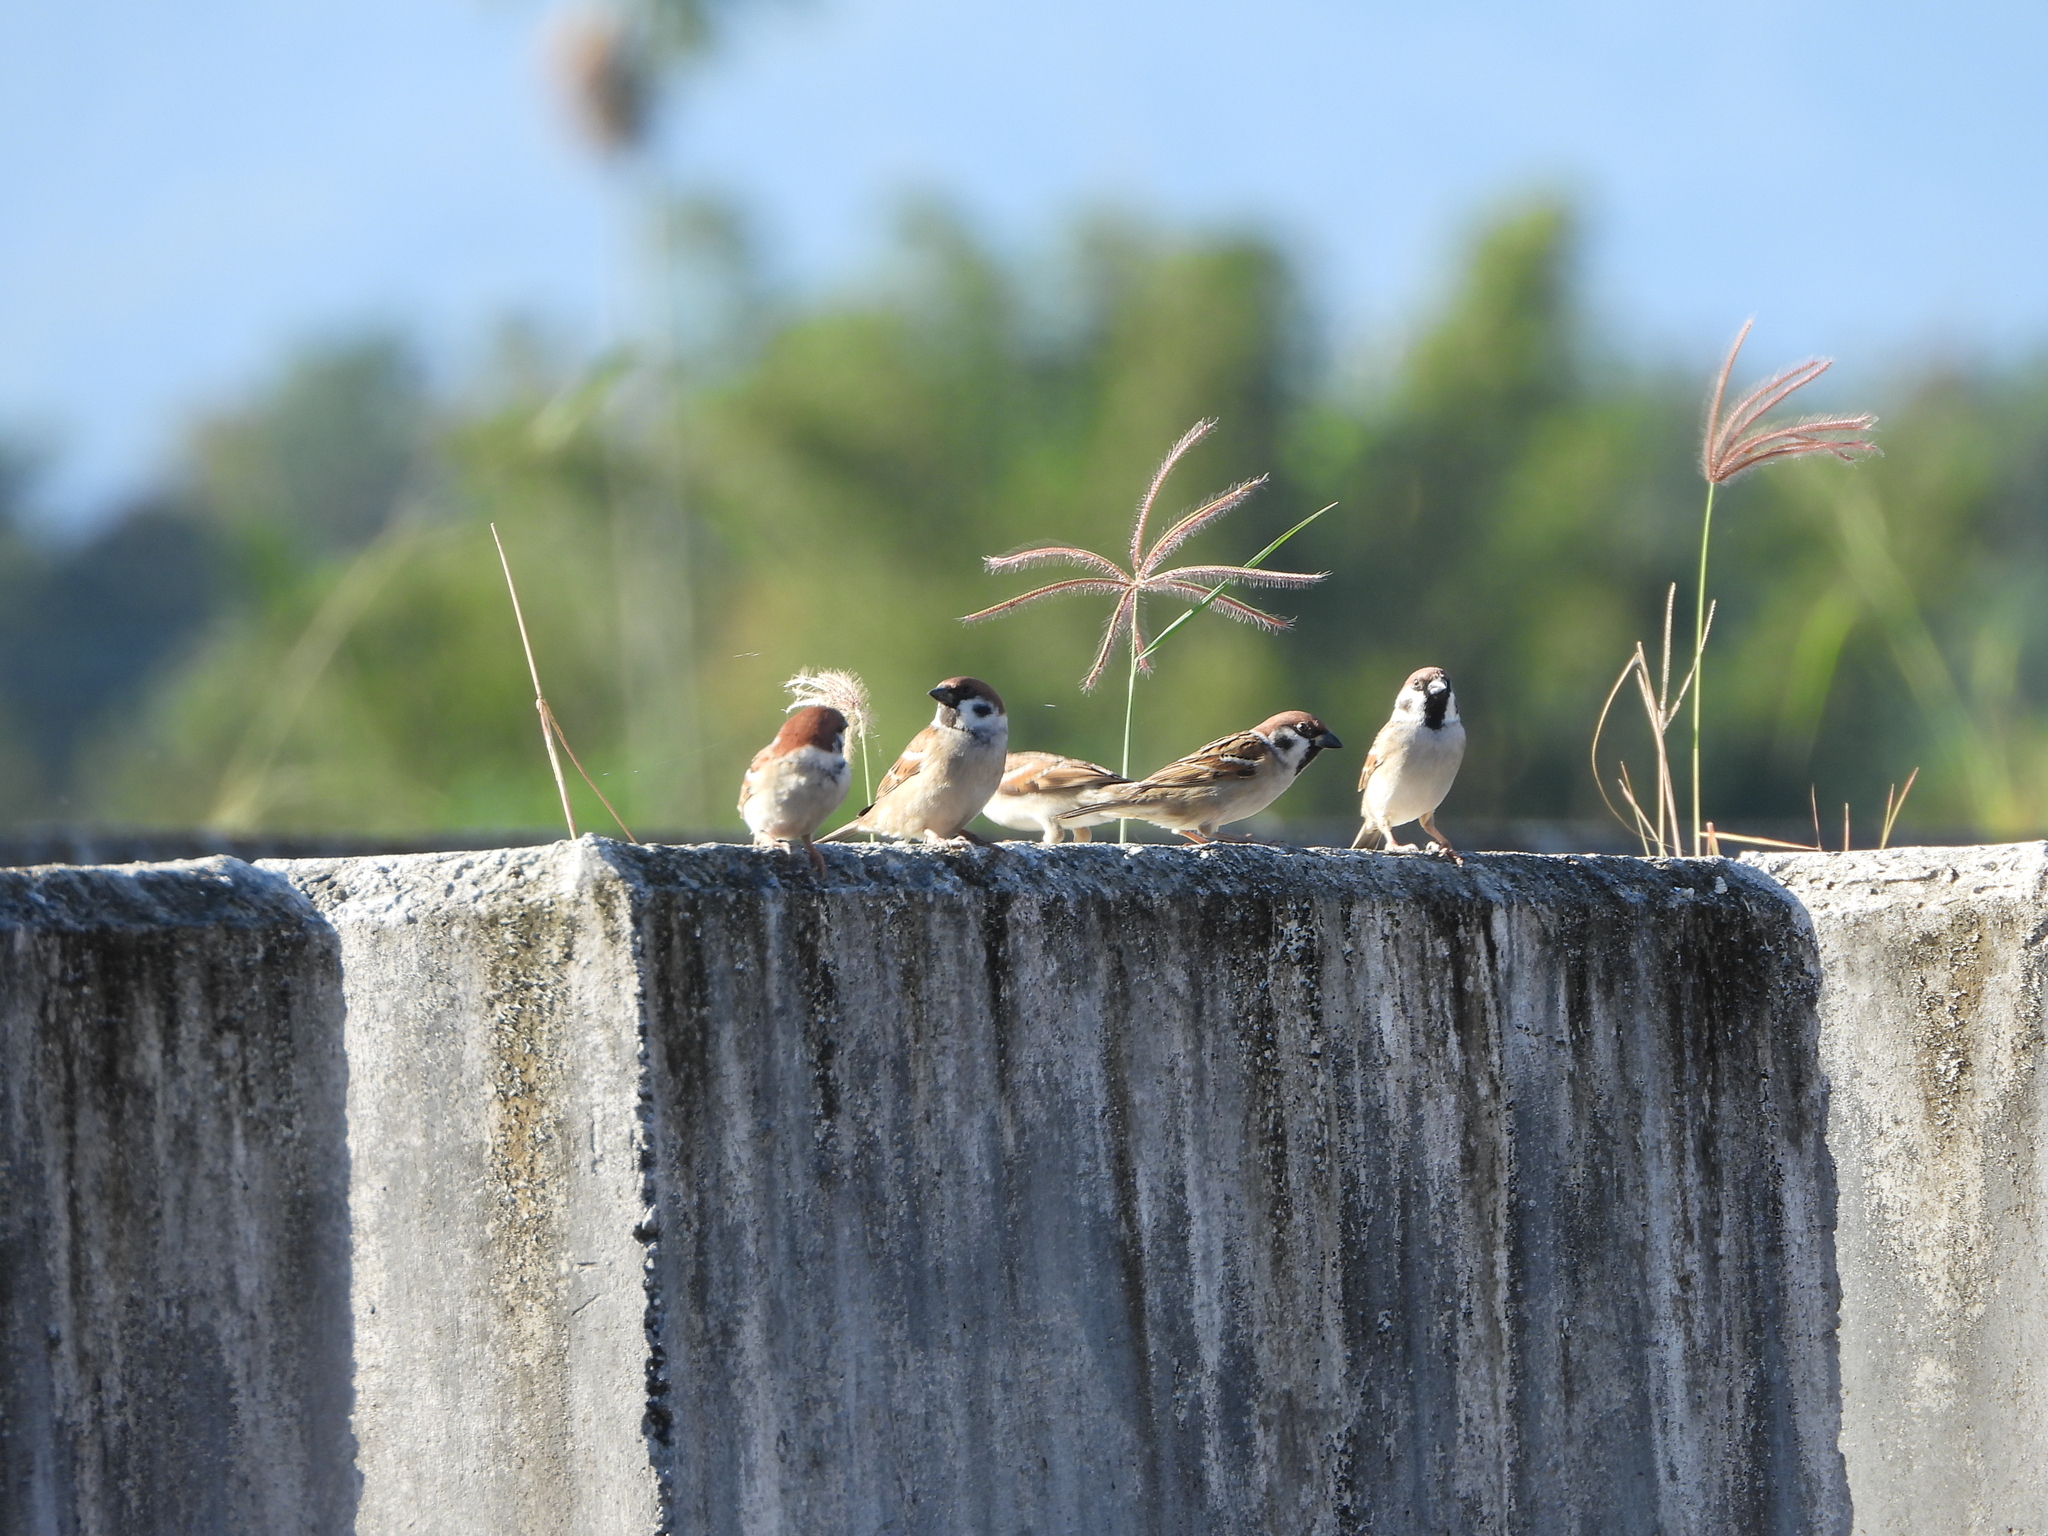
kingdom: Animalia
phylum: Chordata
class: Aves
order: Passeriformes
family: Passeridae
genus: Passer
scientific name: Passer montanus
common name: Eurasian tree sparrow
